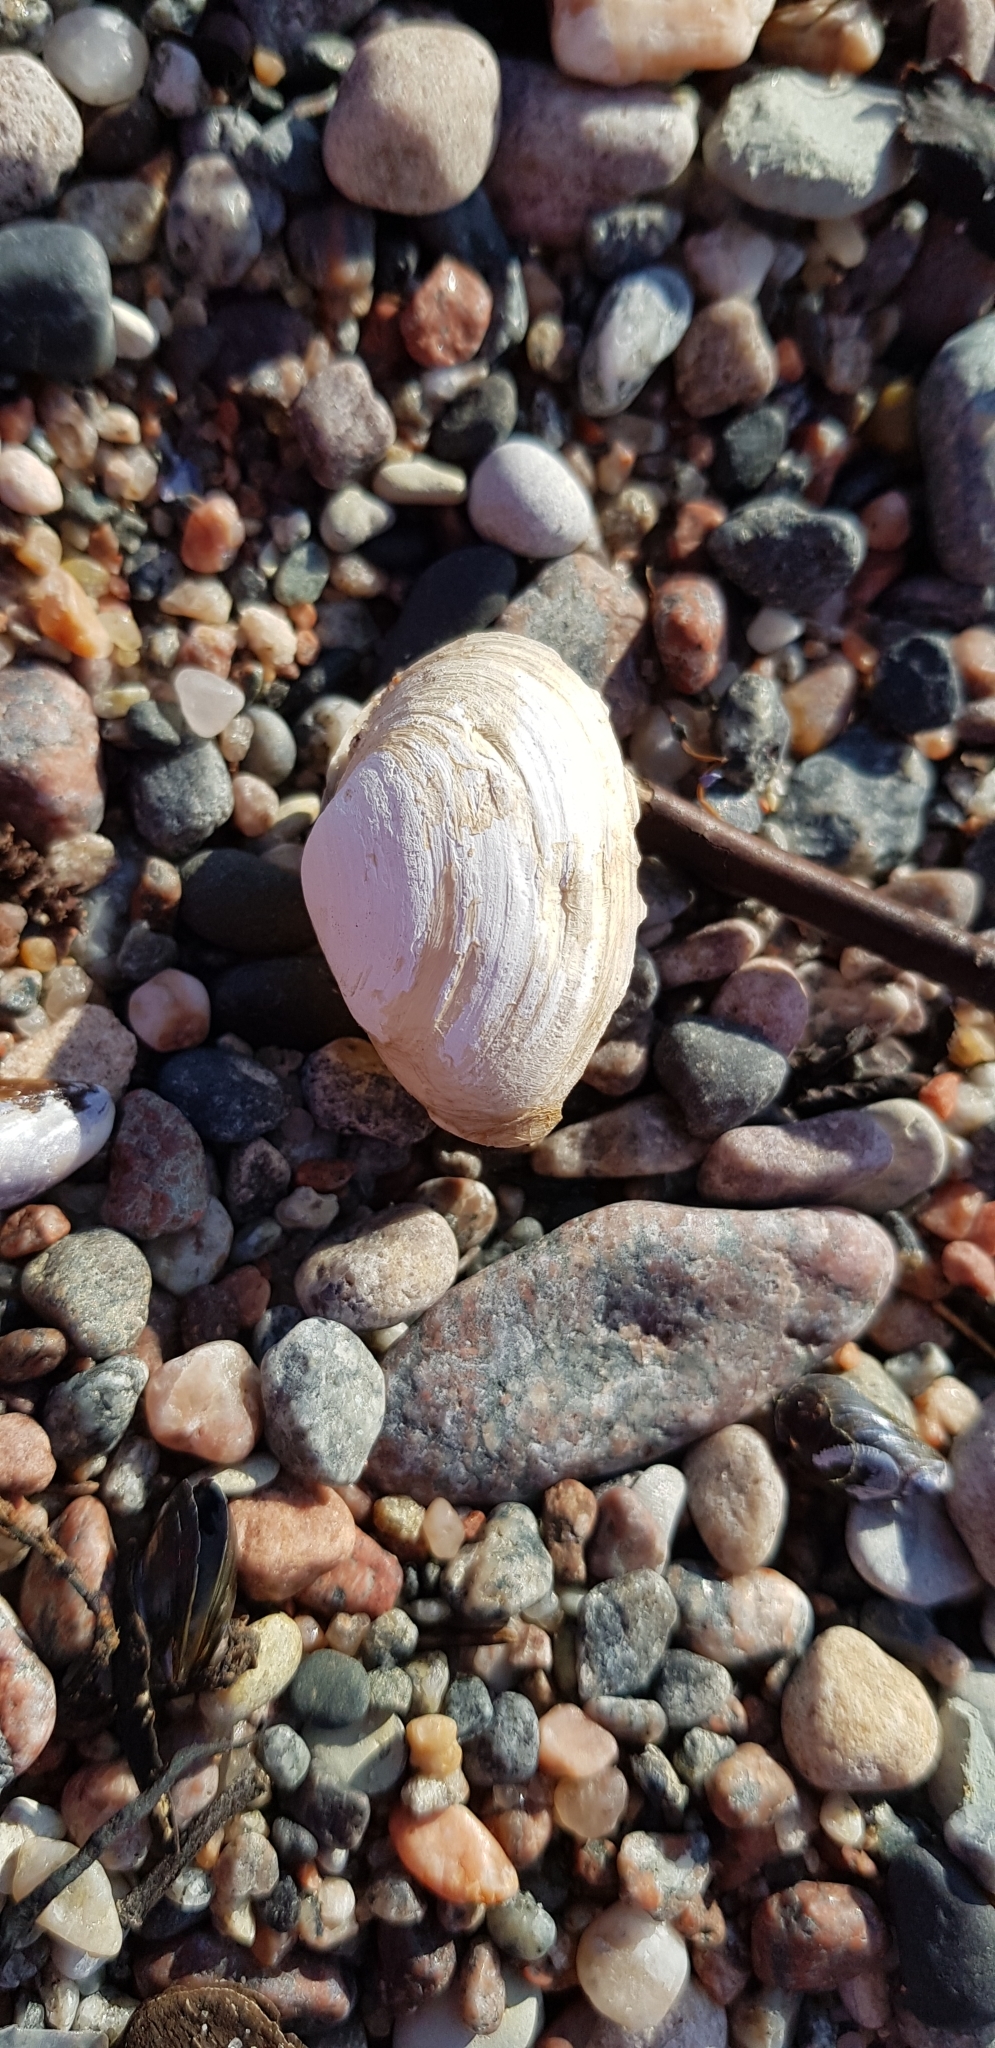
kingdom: Animalia
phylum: Mollusca
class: Bivalvia
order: Myida
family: Myidae
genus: Mya
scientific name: Mya arenaria
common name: Soft-shelled clam
